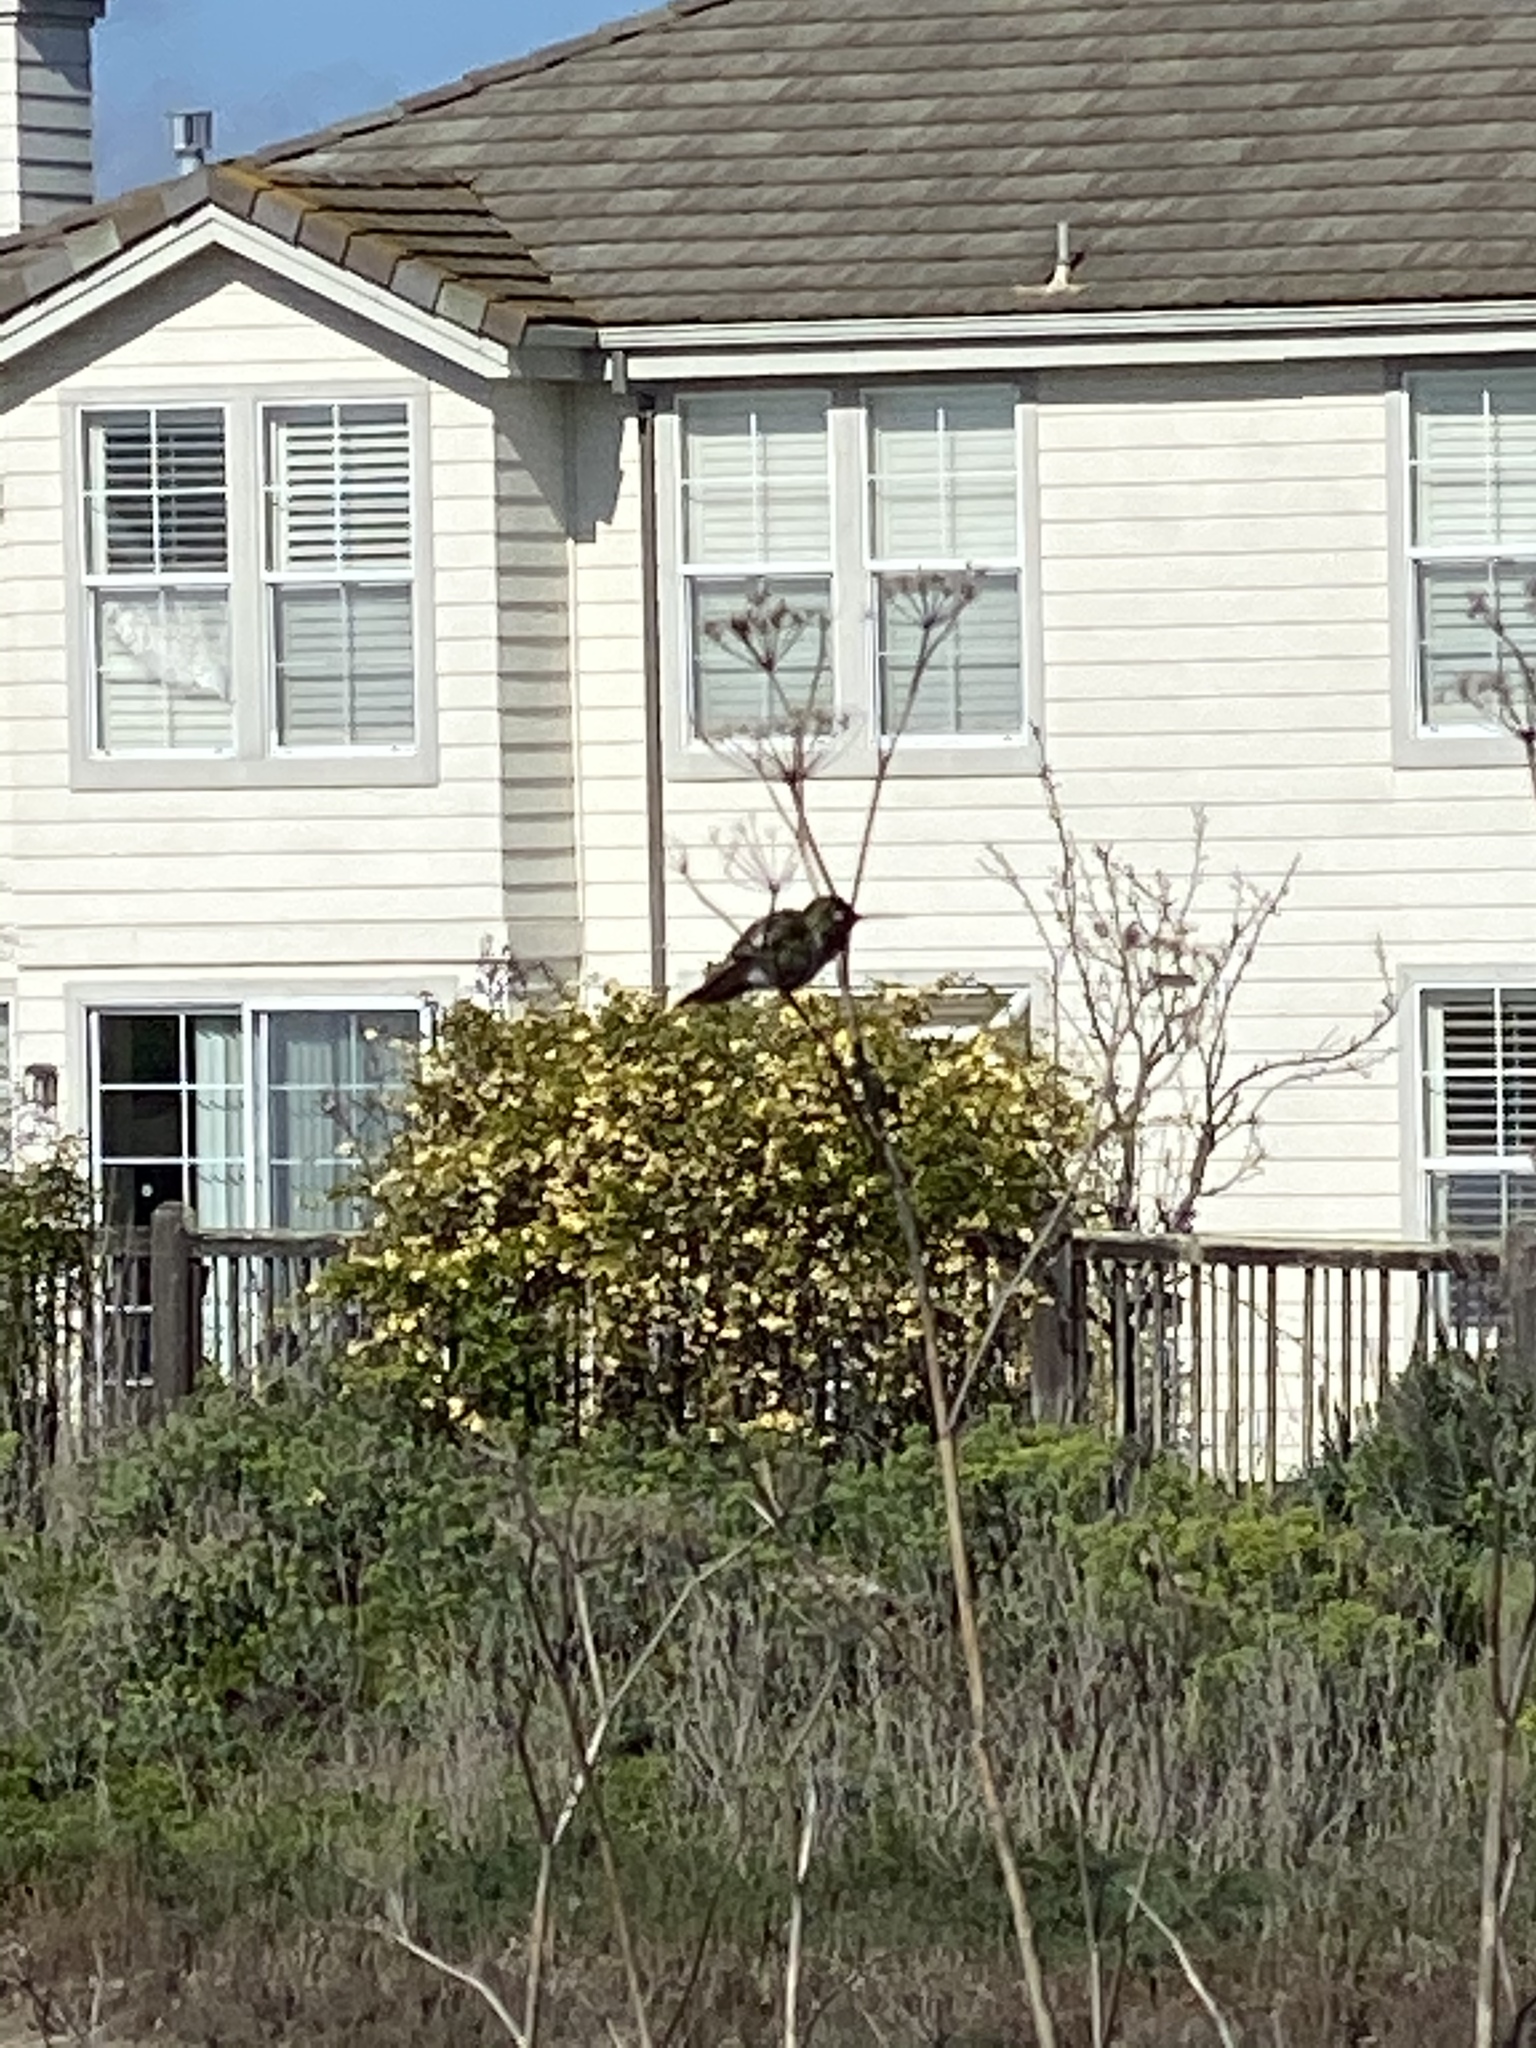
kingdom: Animalia
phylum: Chordata
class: Aves
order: Apodiformes
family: Trochilidae
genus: Calypte
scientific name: Calypte anna
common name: Anna's hummingbird
